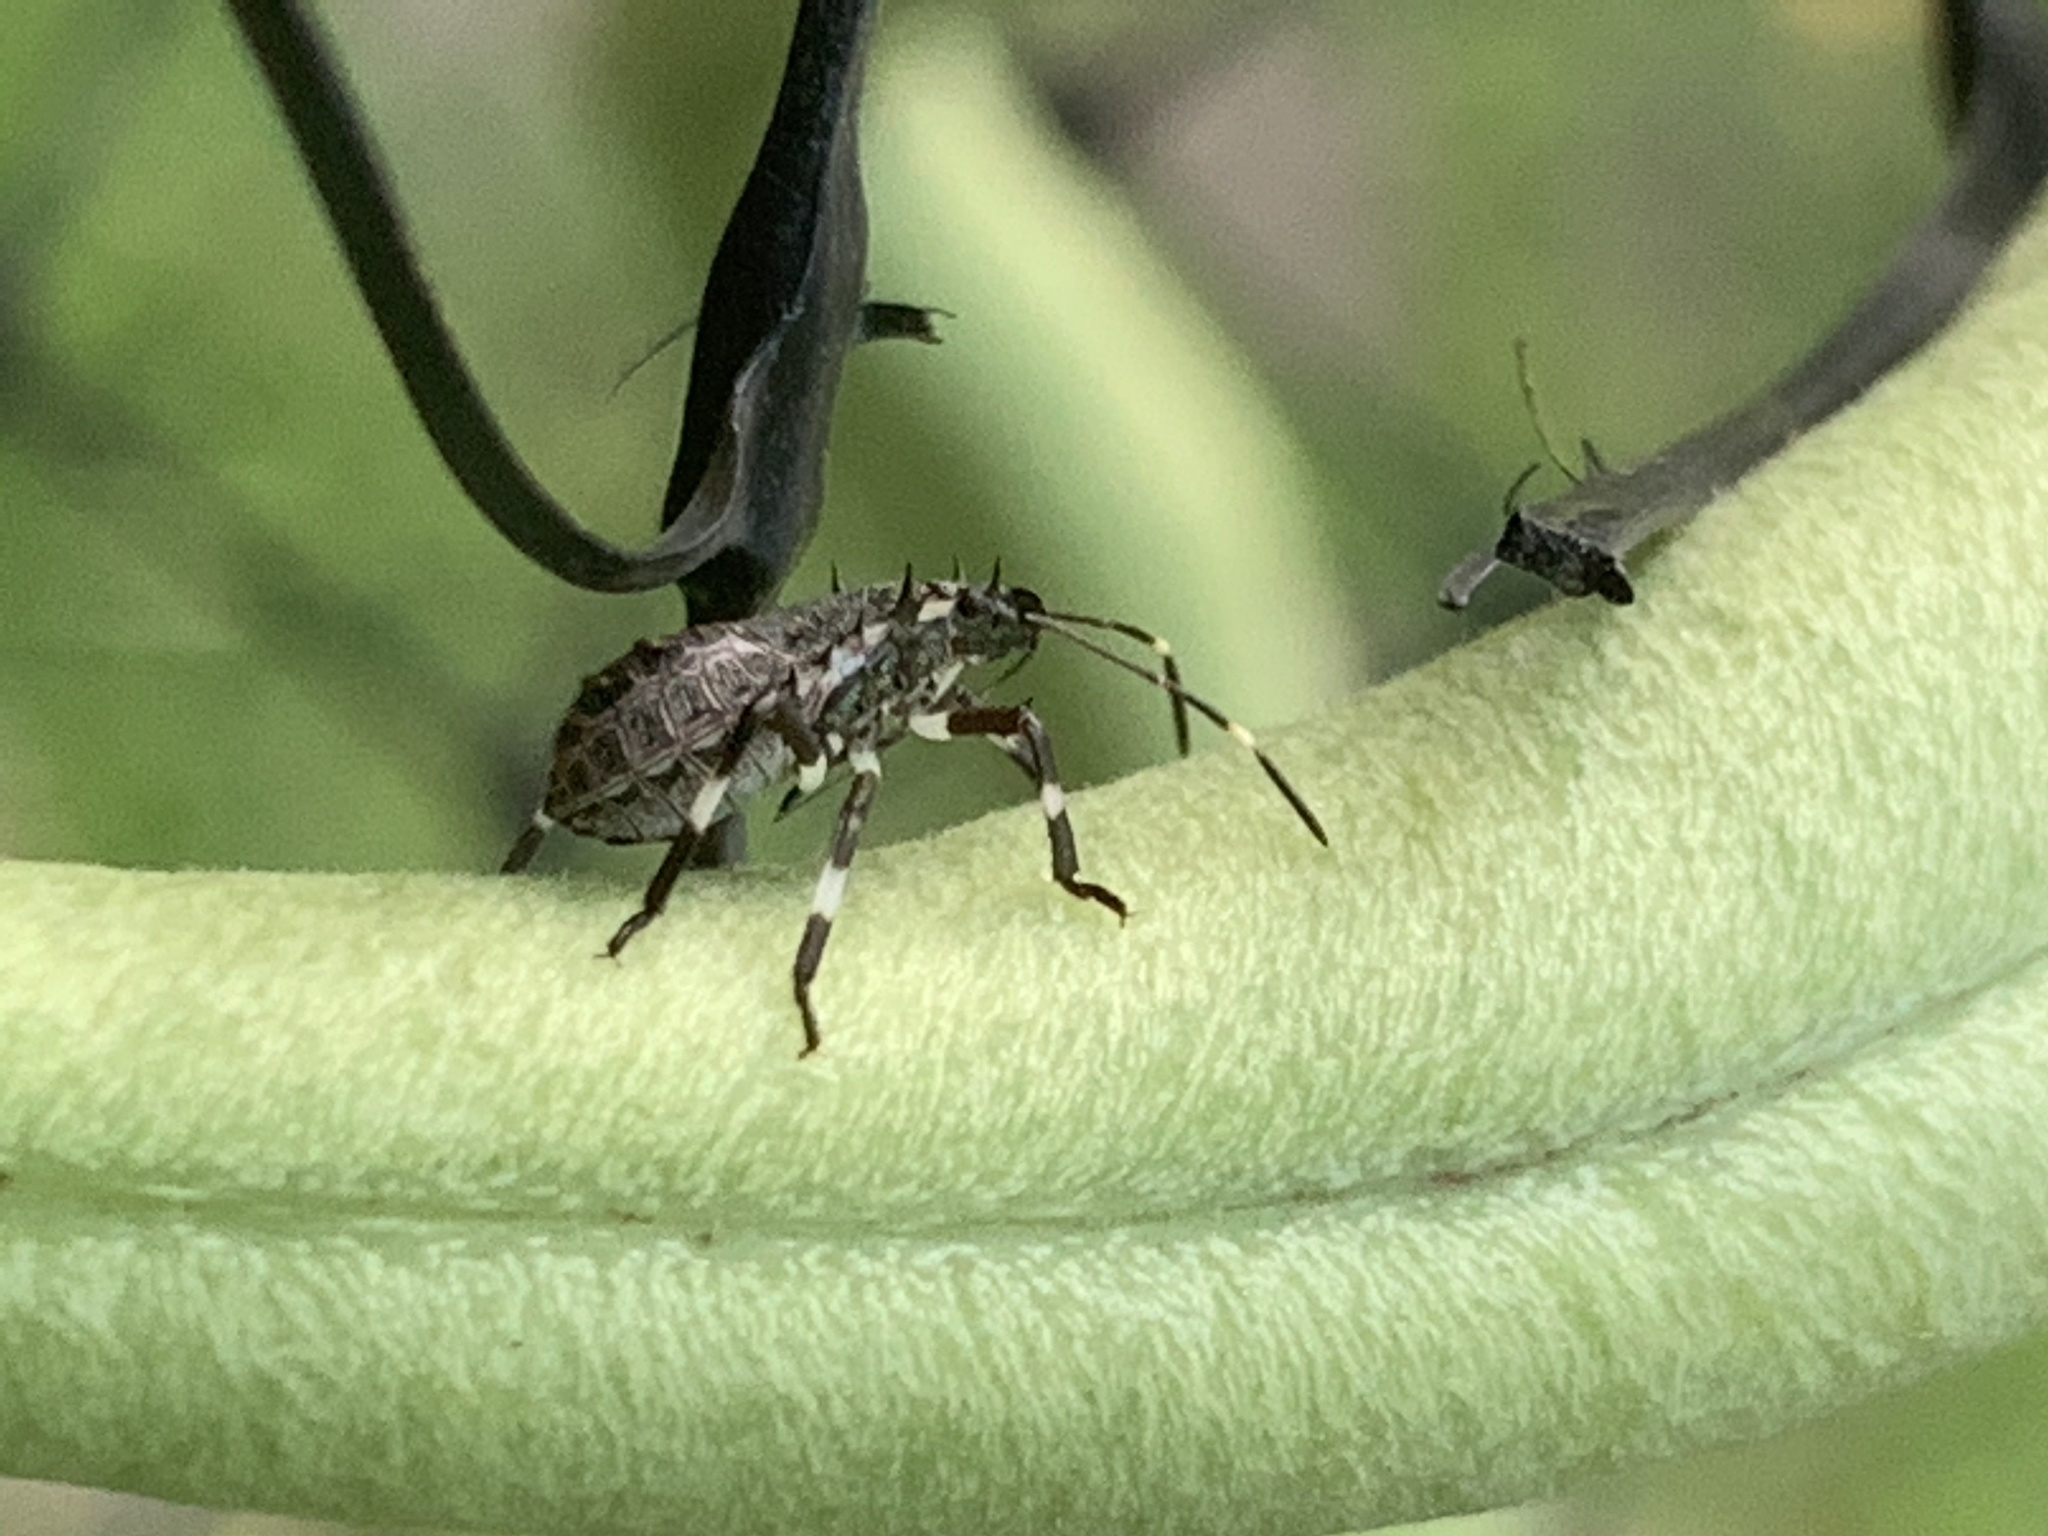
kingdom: Animalia
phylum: Arthropoda
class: Insecta
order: Hemiptera
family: Pentatomidae
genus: Halyomorpha
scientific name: Halyomorpha halys
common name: Brown marmorated stink bug
